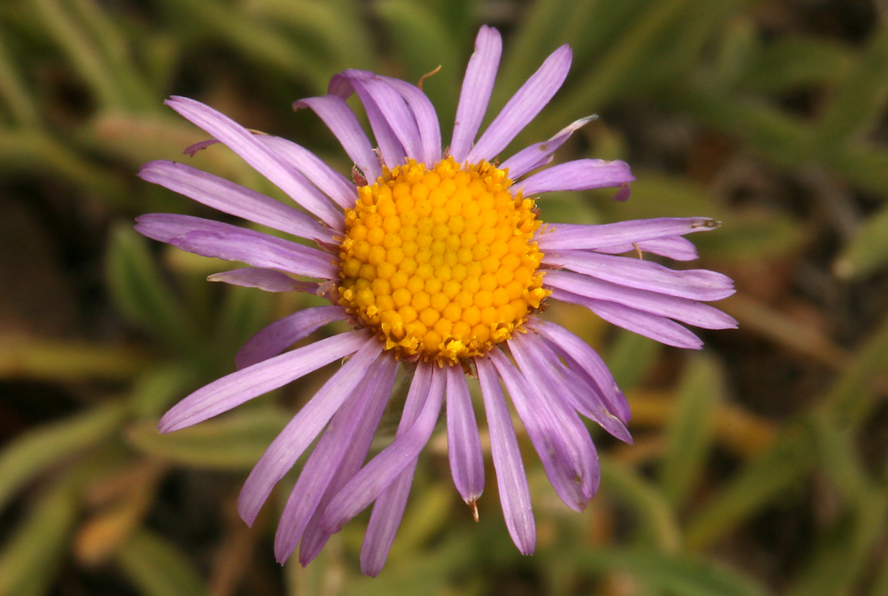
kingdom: Plantae
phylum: Tracheophyta
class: Magnoliopsida
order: Asterales
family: Asteraceae
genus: Erigeron
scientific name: Erigeron clokeyi
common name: Clokey's fleabane
